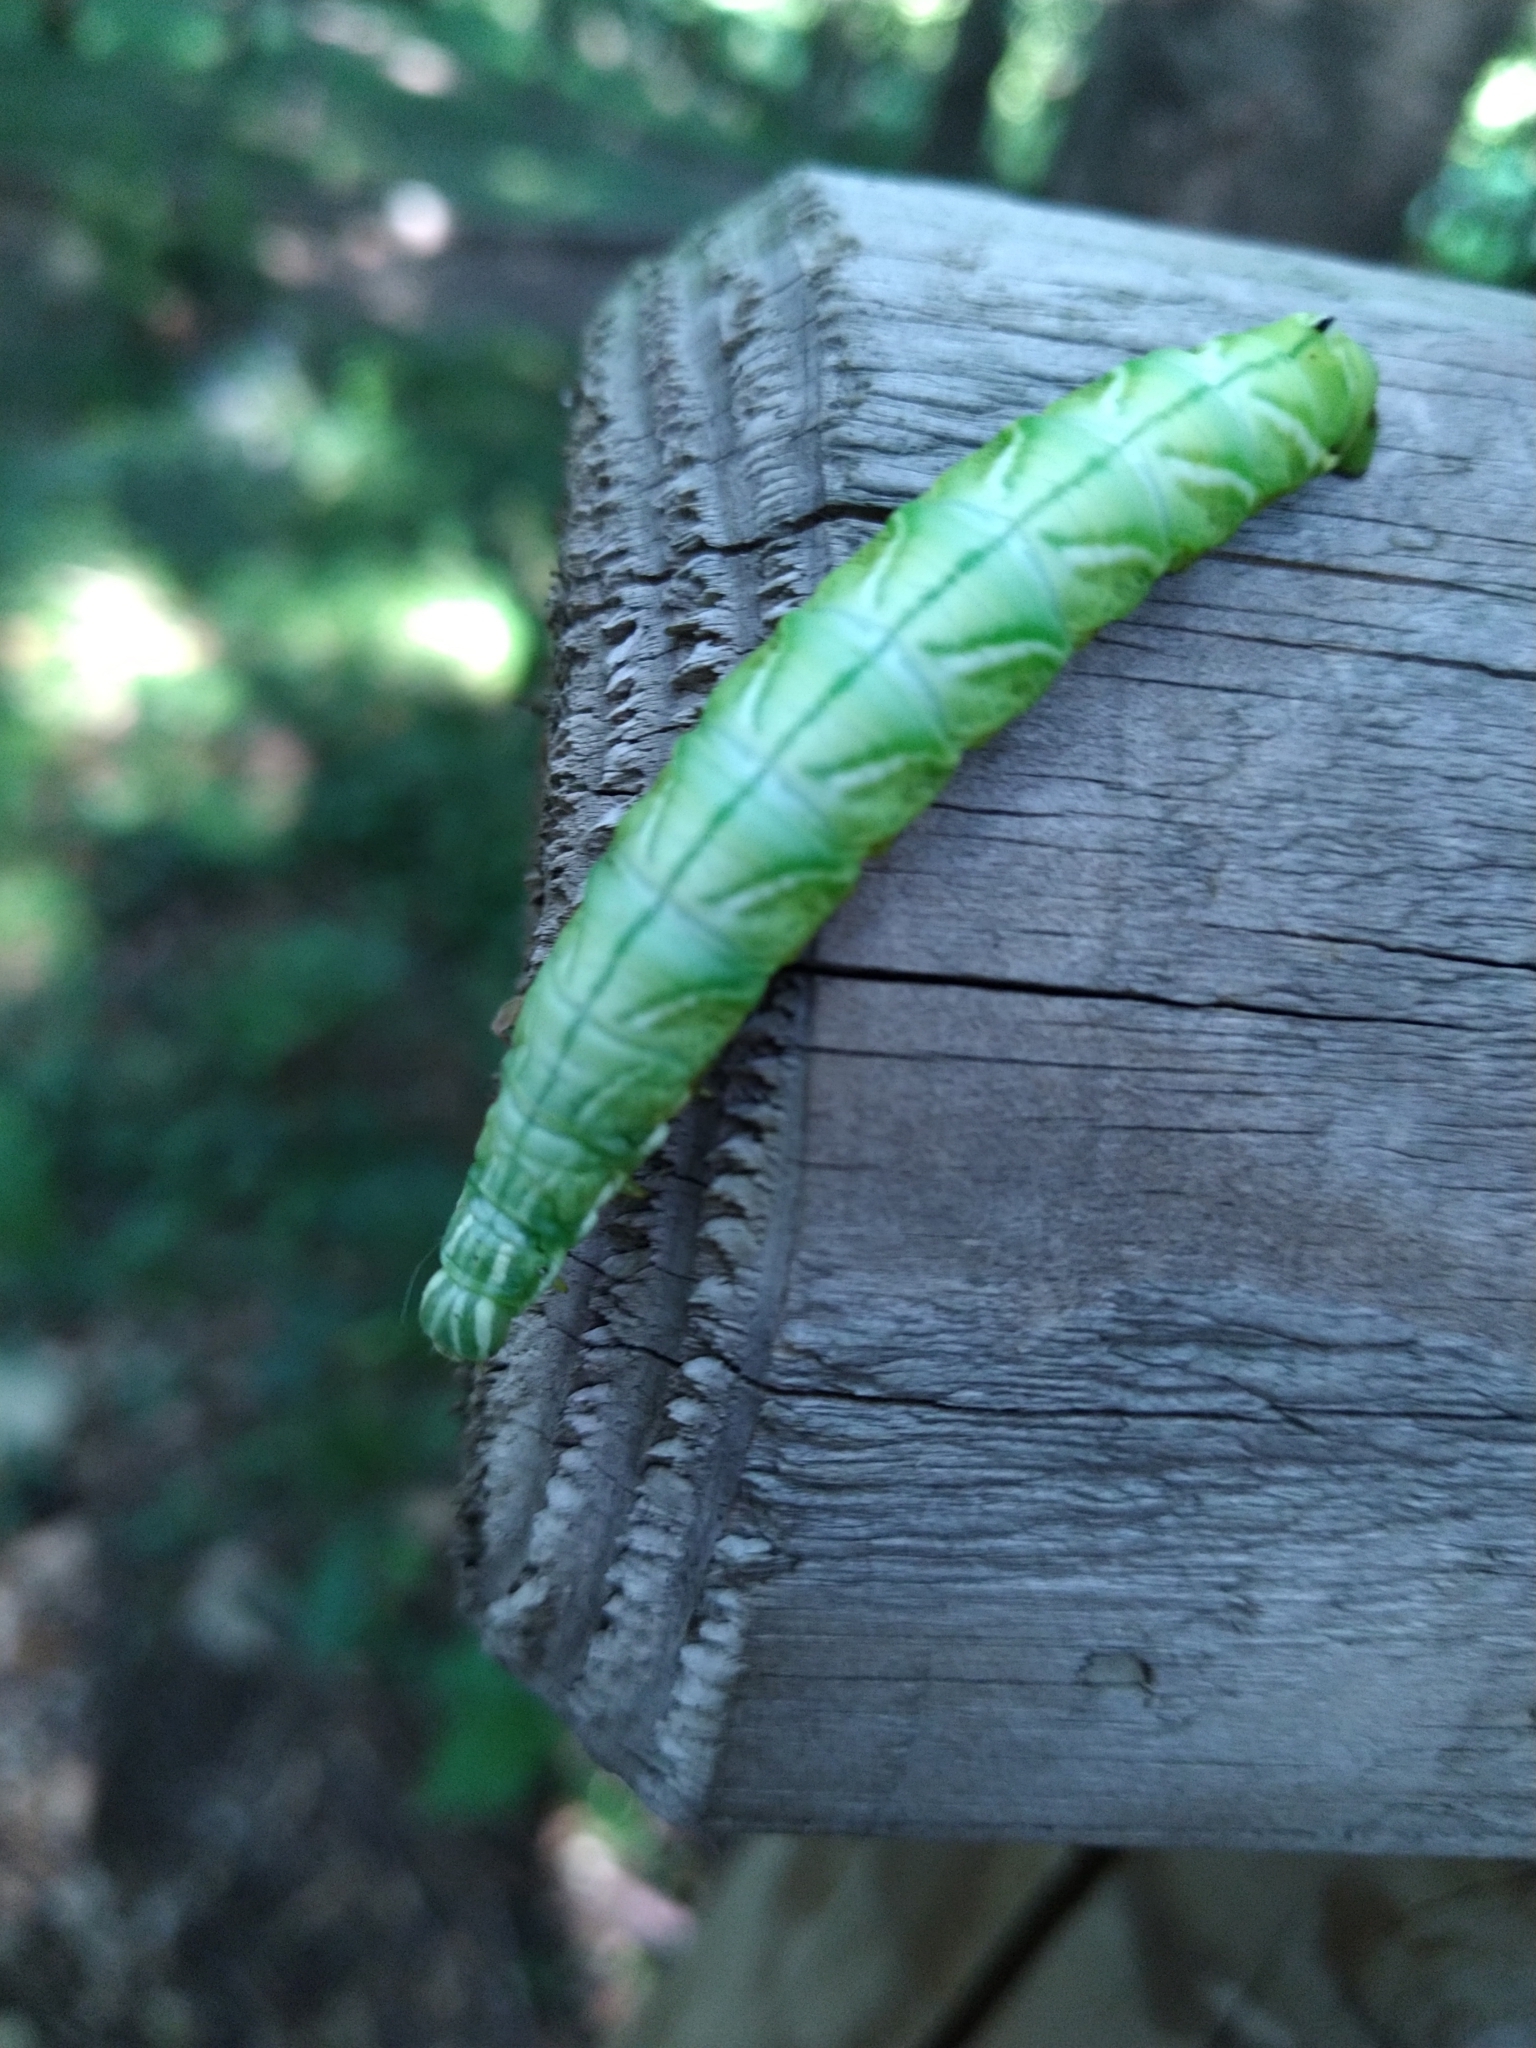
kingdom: Animalia
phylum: Arthropoda
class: Insecta
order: Lepidoptera
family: Endromidae
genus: Endromis
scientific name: Endromis versicolora
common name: Kentish glory
